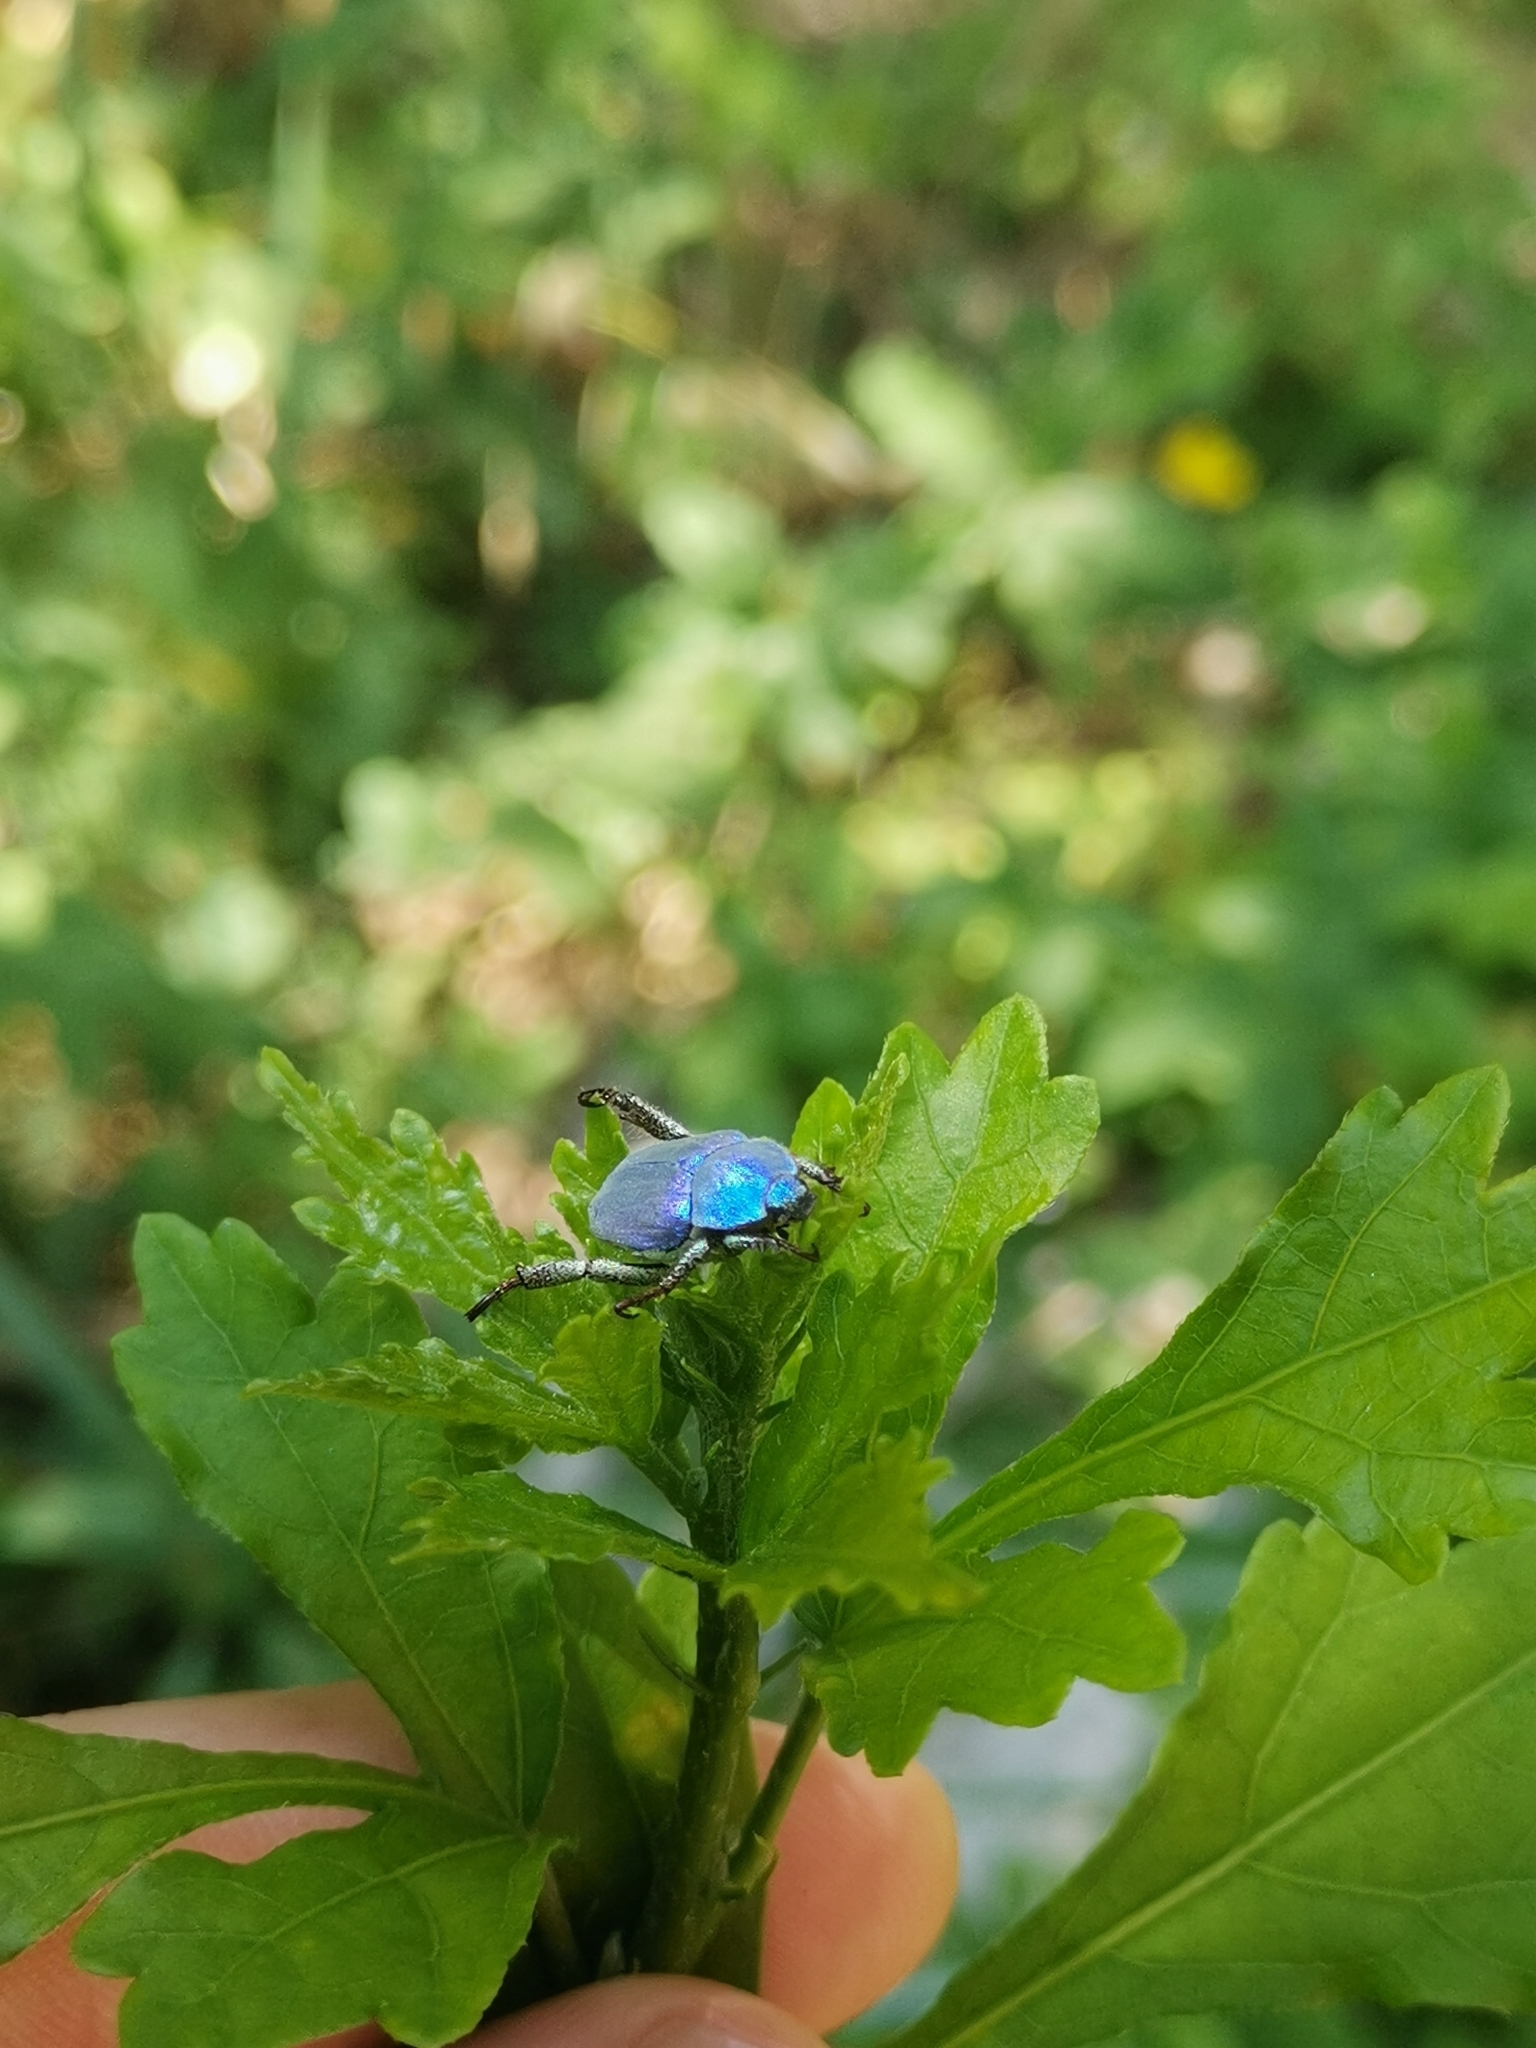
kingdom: Animalia
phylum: Arthropoda
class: Insecta
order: Coleoptera
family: Scarabaeidae
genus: Hoplia
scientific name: Hoplia coerulea
